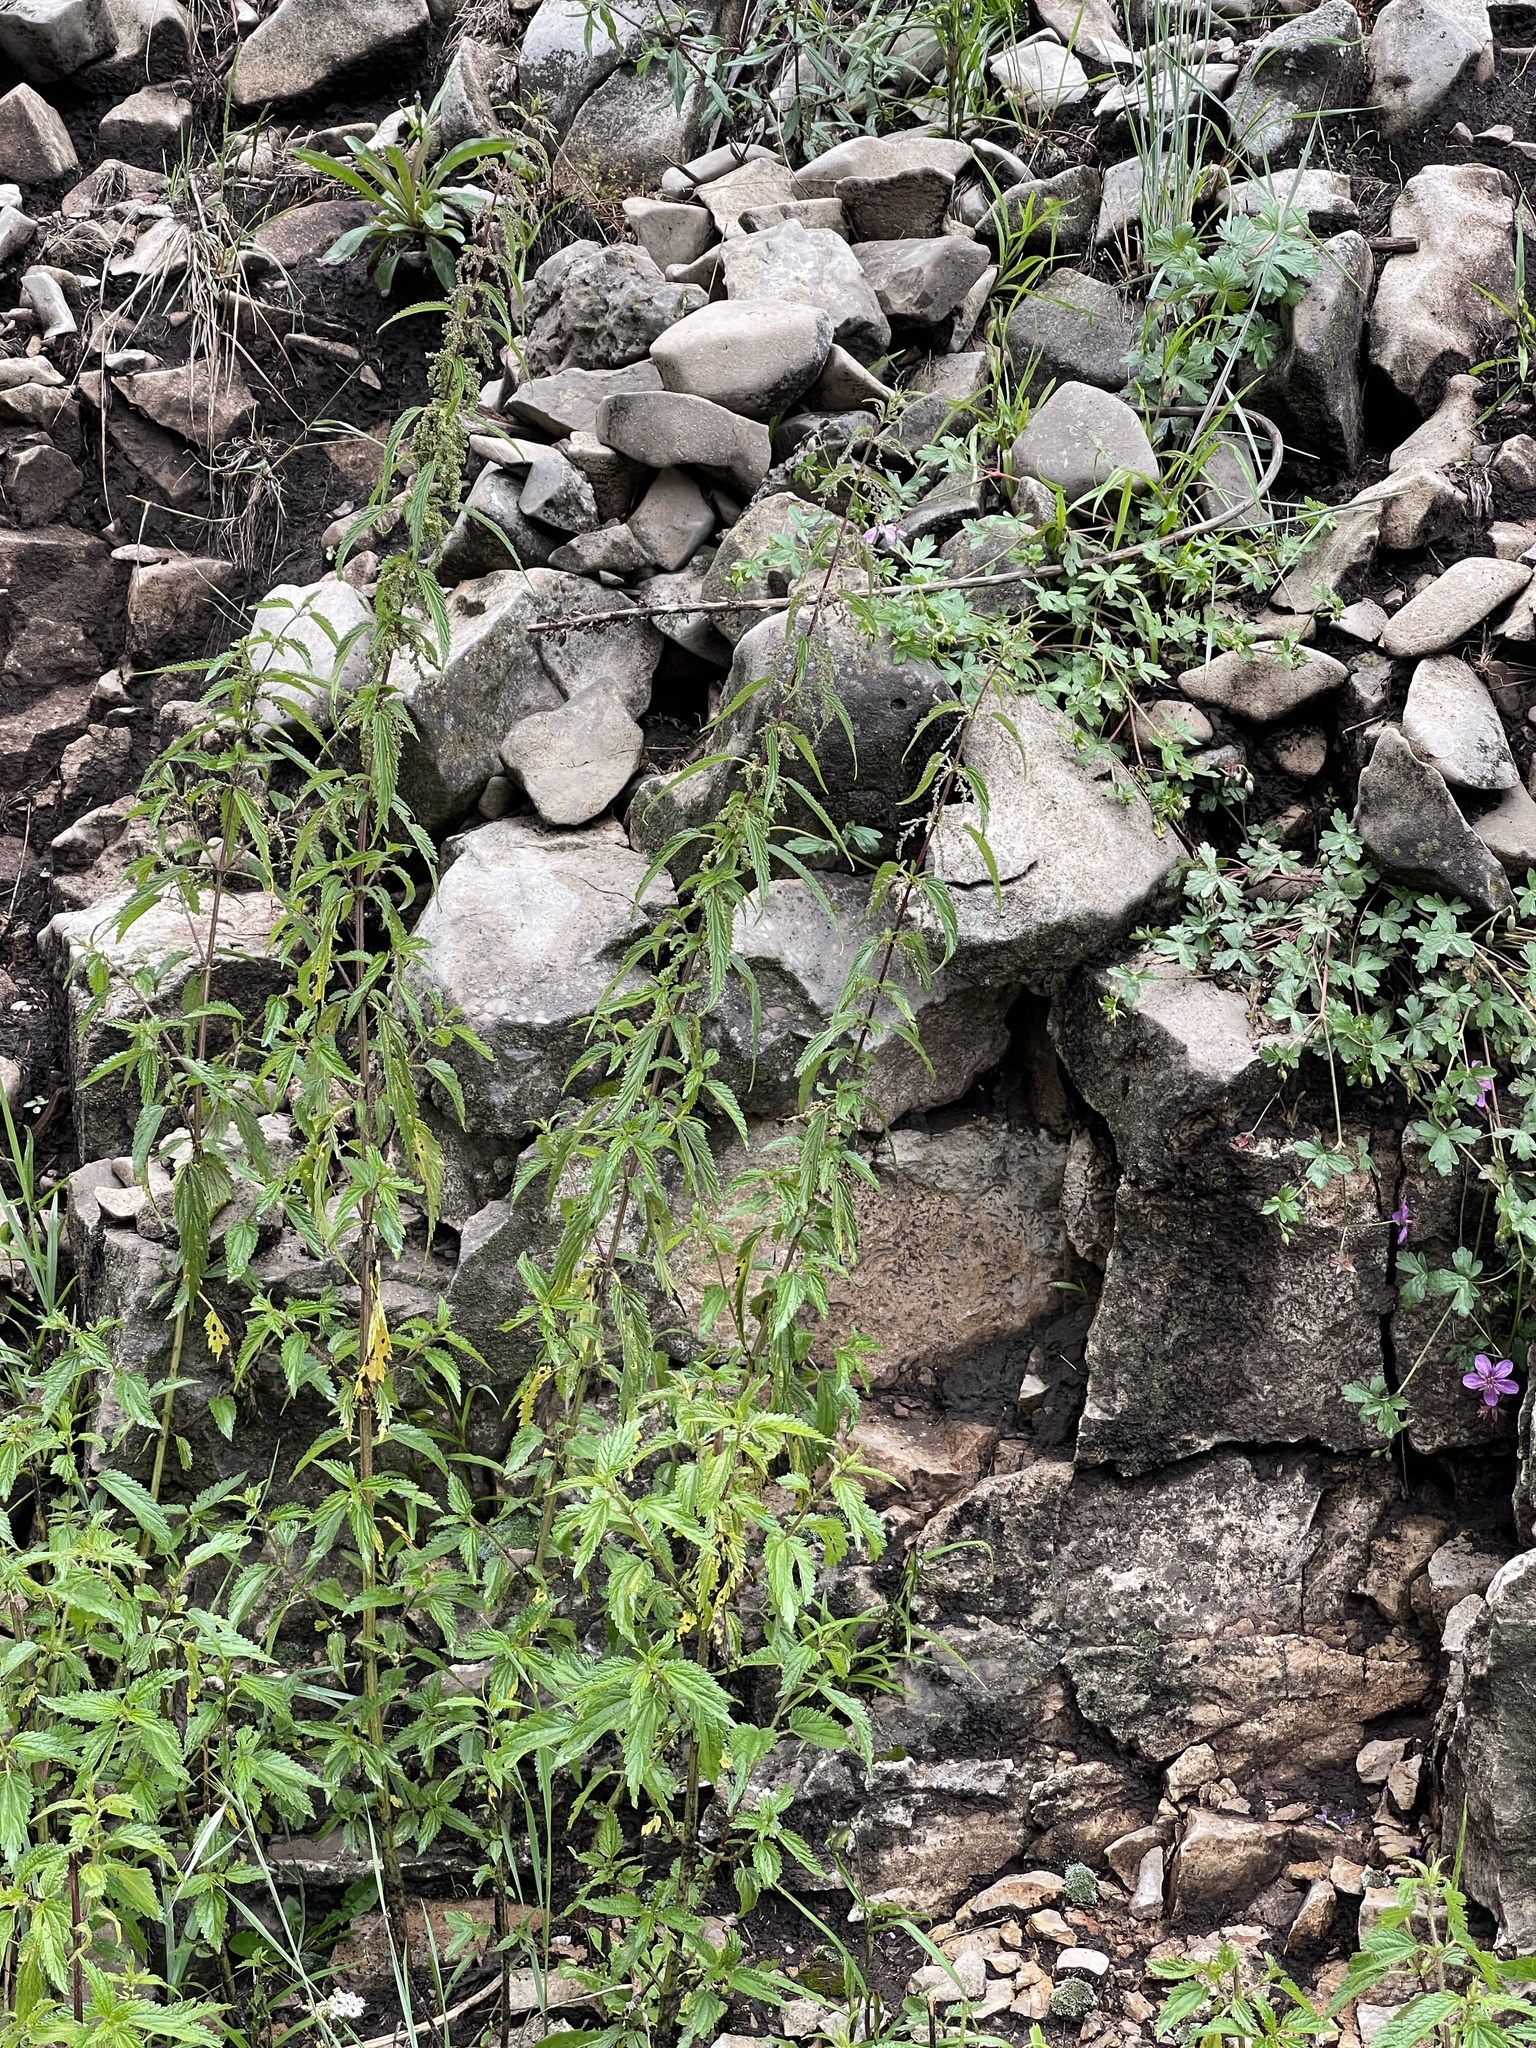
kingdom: Plantae
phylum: Tracheophyta
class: Magnoliopsida
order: Rosales
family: Urticaceae
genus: Urtica
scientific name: Urtica gracilis
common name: Slender stinging nettle
